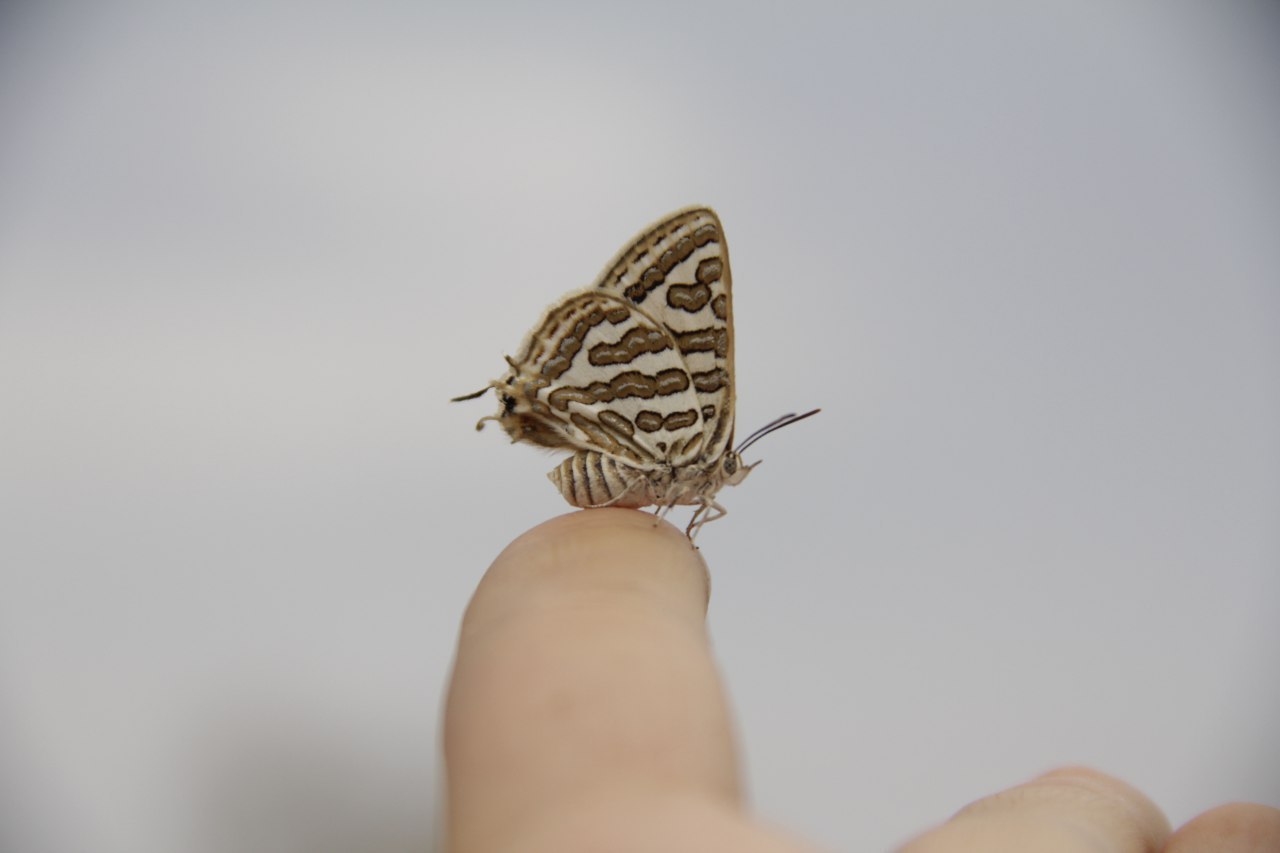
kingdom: Animalia
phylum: Arthropoda
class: Insecta
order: Lepidoptera
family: Lycaenidae
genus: Cigaritis
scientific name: Cigaritis epargyros
